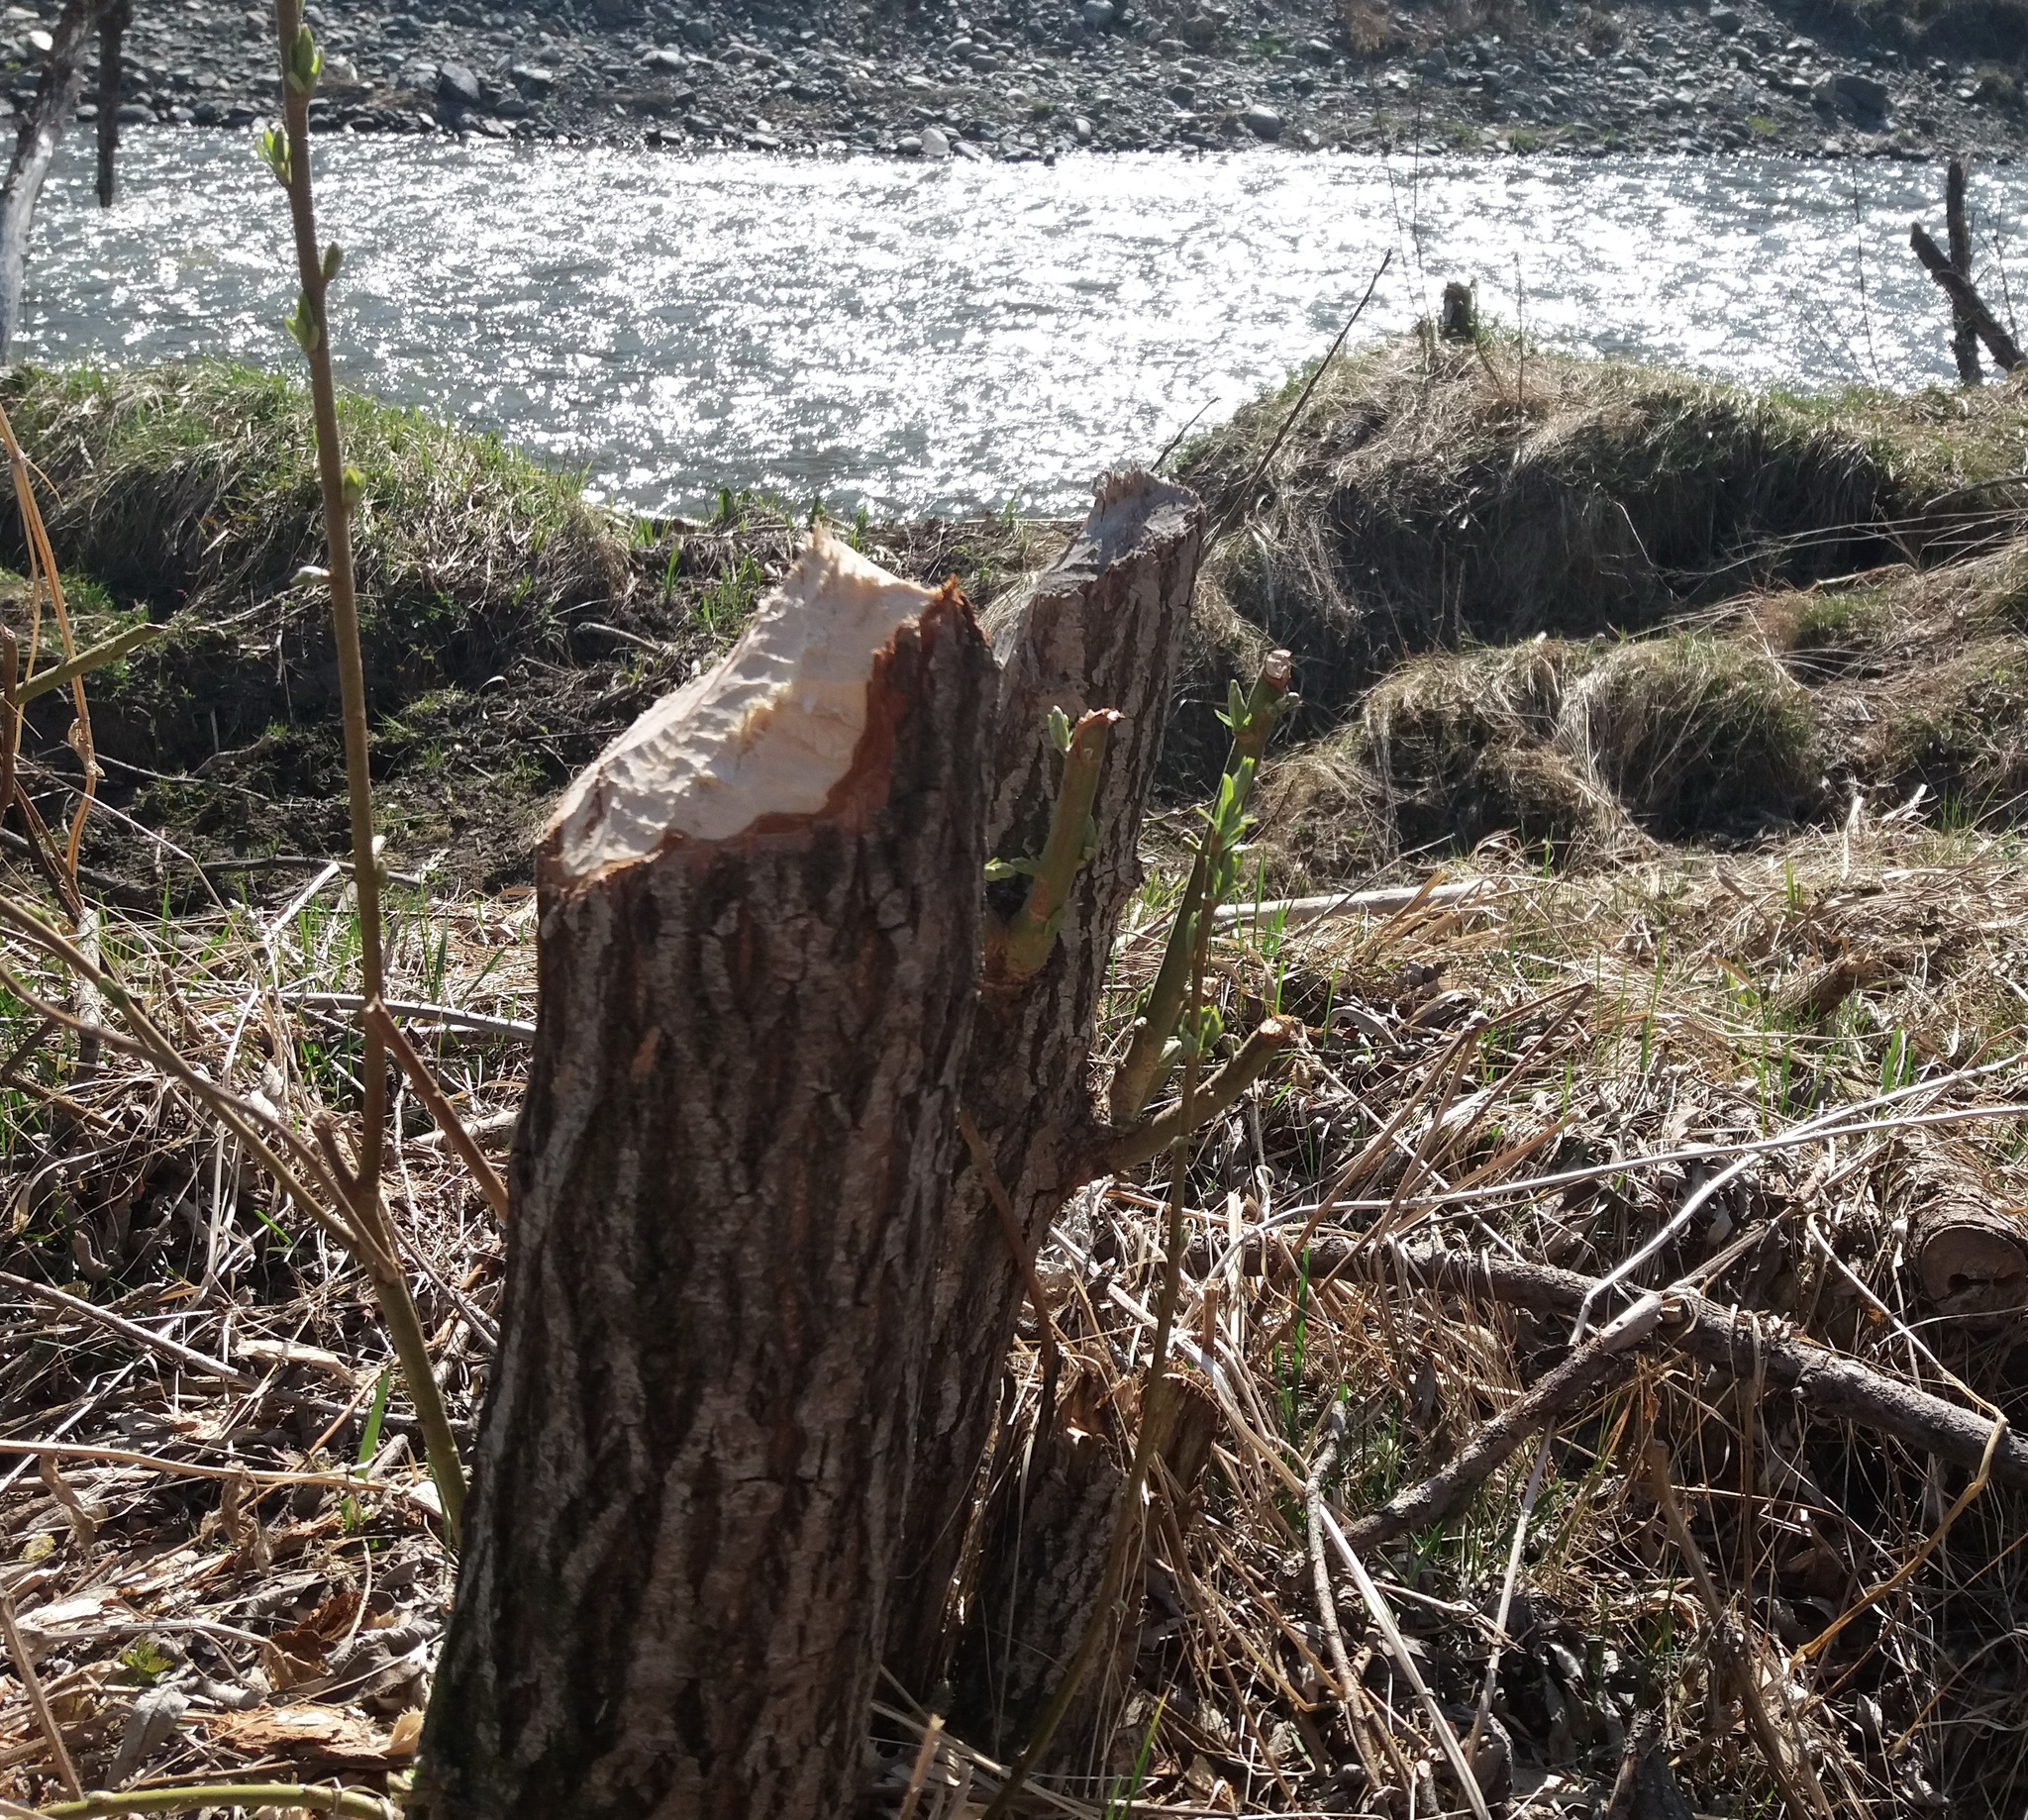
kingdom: Animalia
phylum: Chordata
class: Mammalia
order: Rodentia
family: Castoridae
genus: Castor
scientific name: Castor fiber
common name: Eurasian beaver
